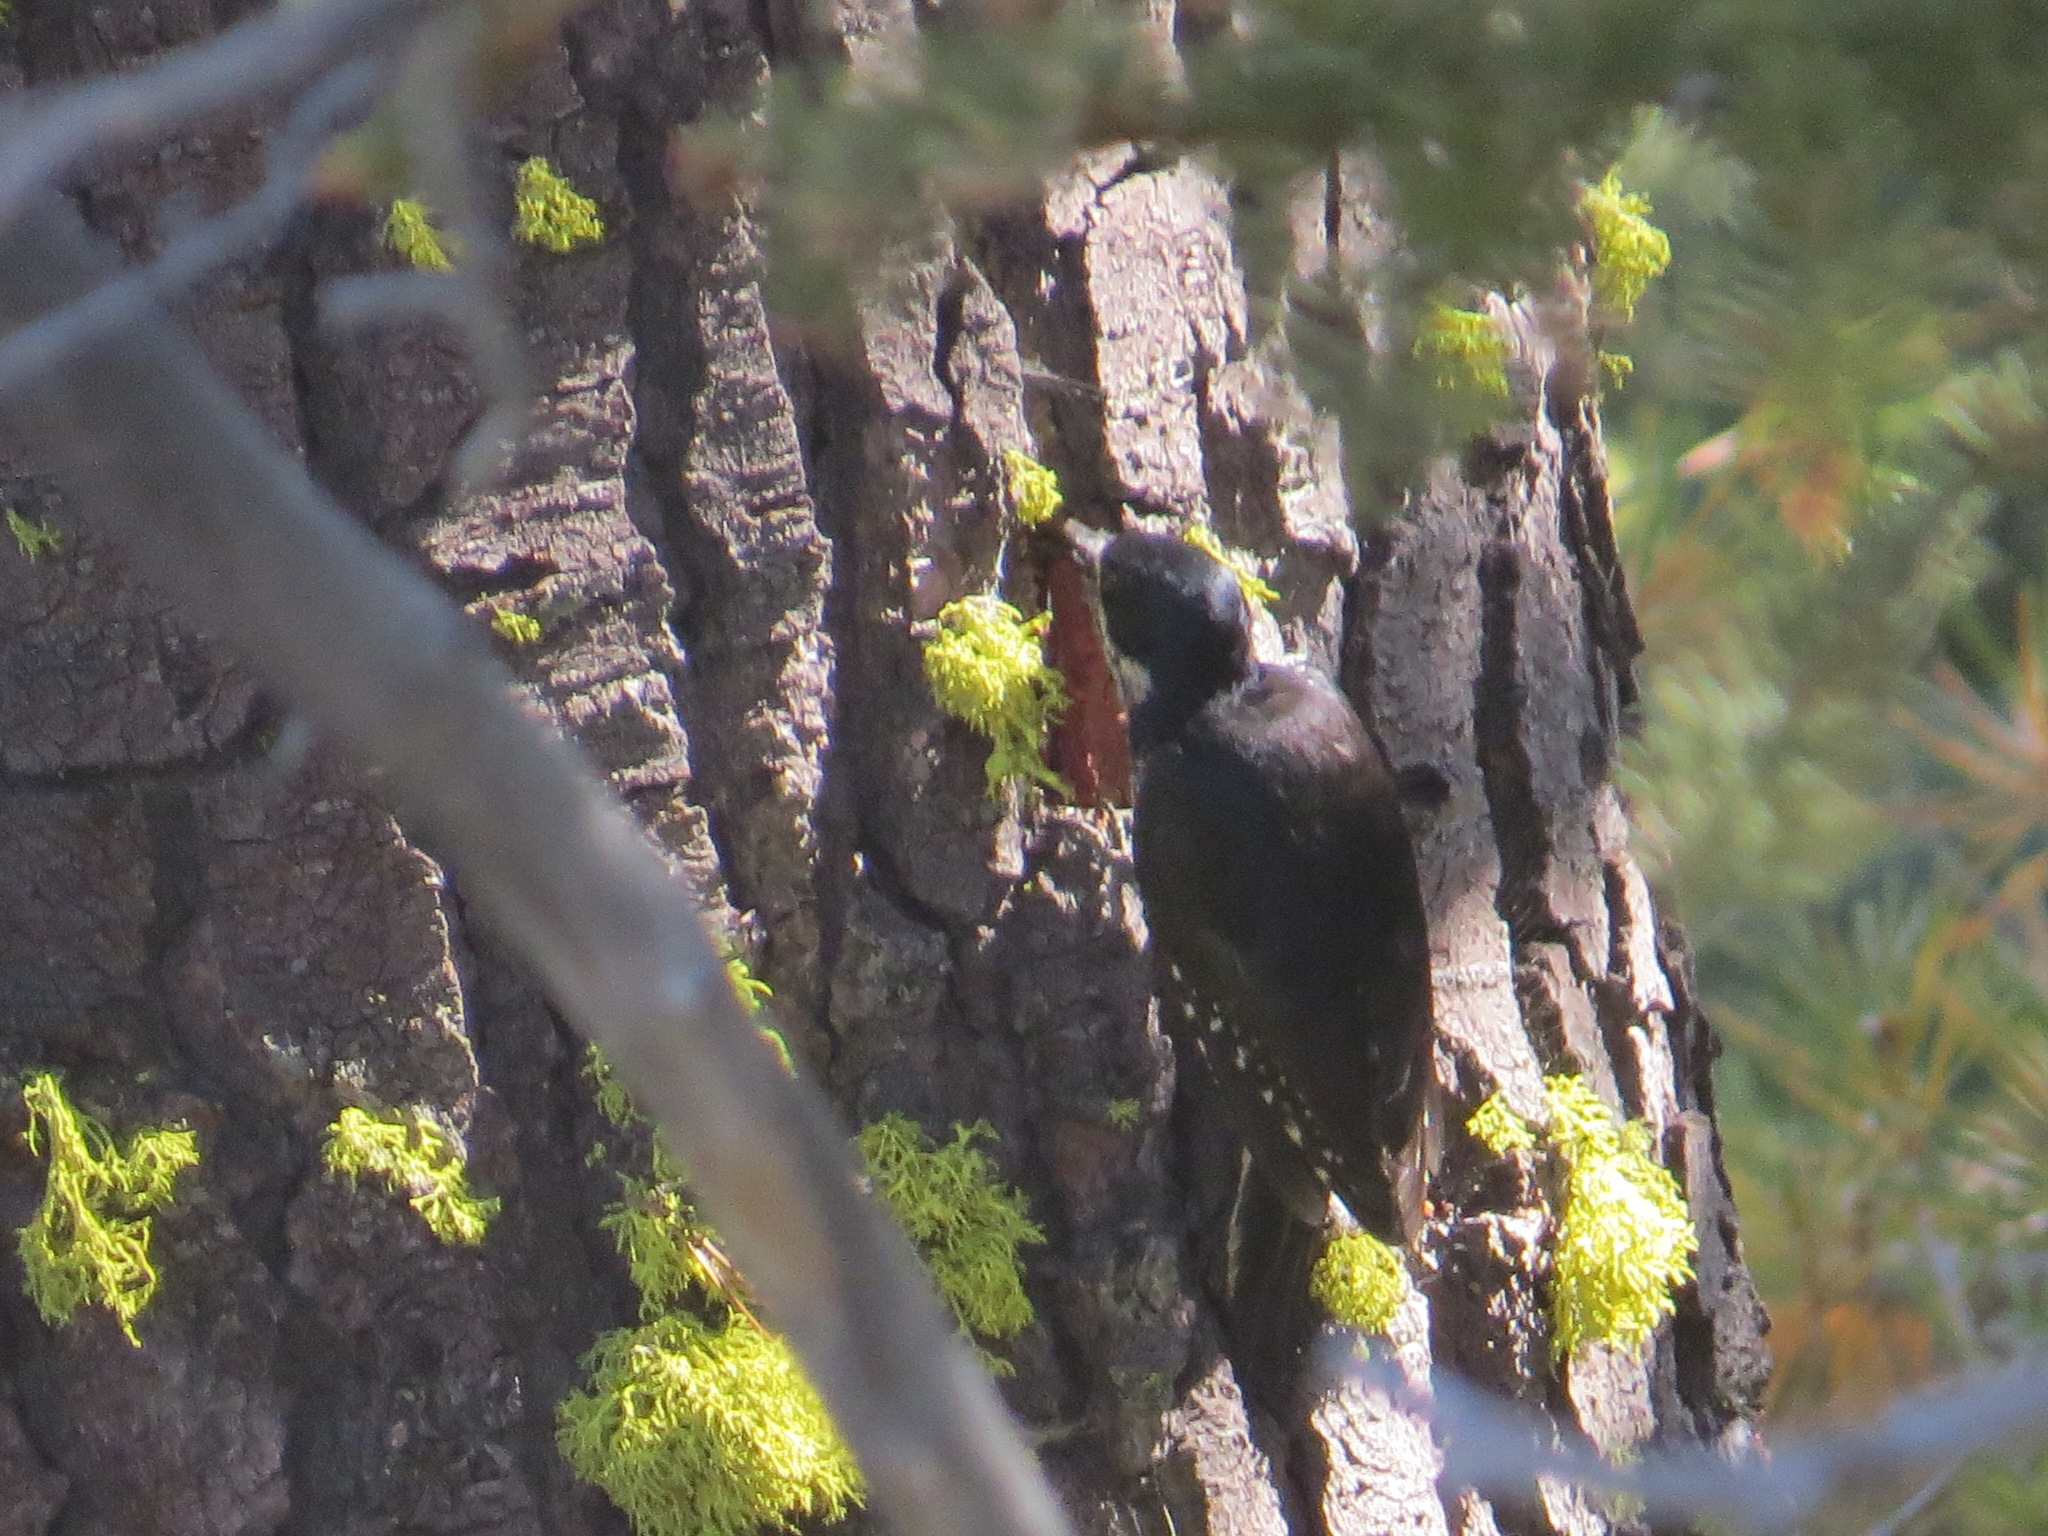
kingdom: Animalia
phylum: Chordata
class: Aves
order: Piciformes
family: Picidae
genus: Picoides
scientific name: Picoides arcticus
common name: Black-backed woodpecker
